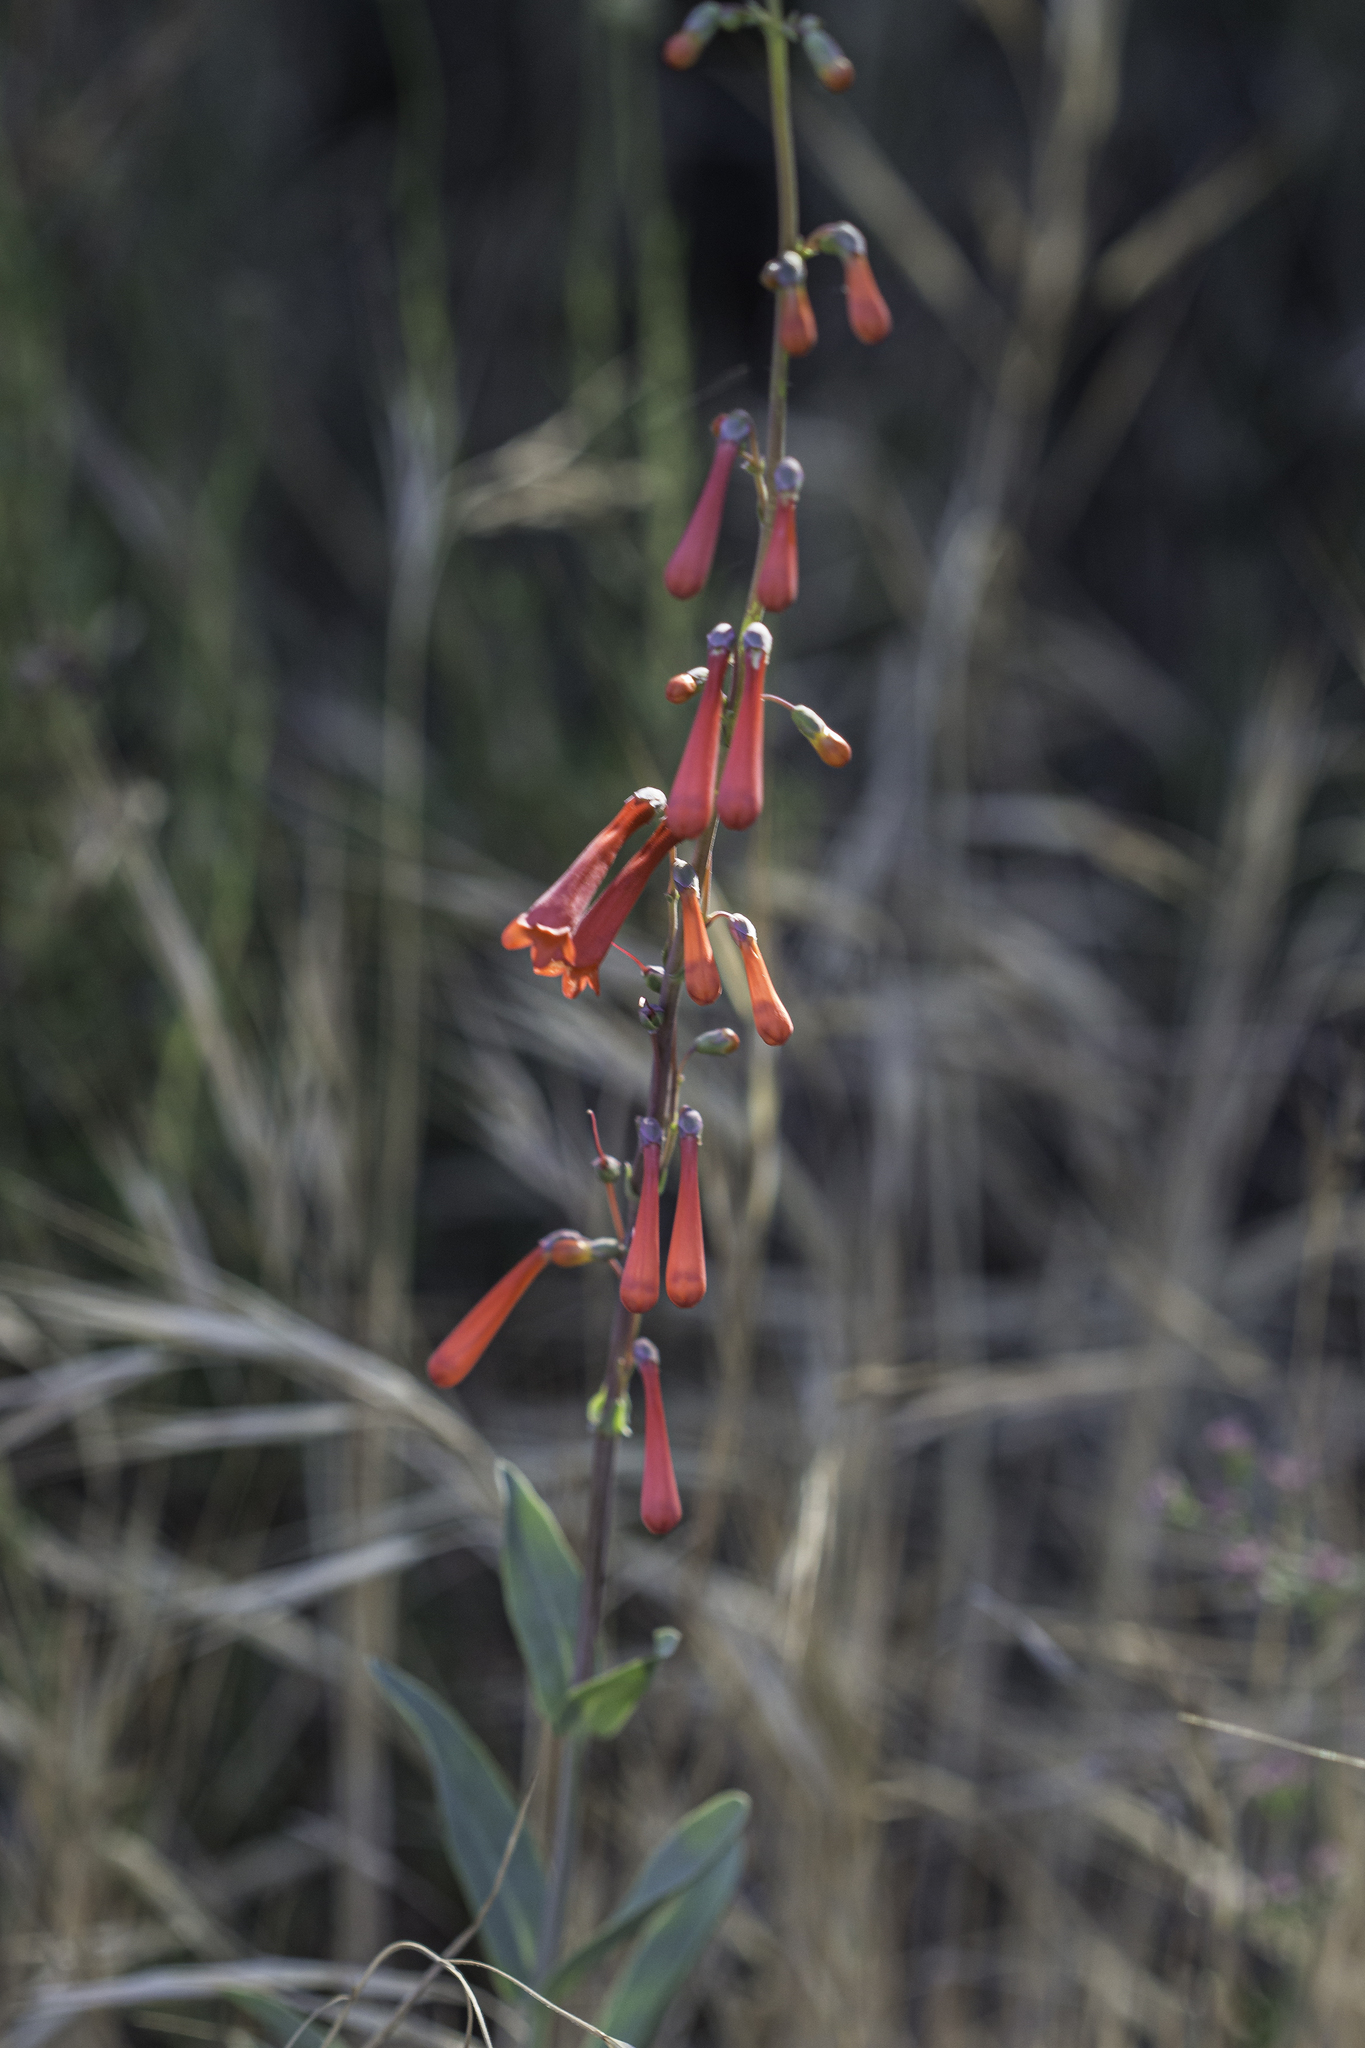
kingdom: Plantae
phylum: Tracheophyta
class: Magnoliopsida
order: Lamiales
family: Plantaginaceae
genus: Penstemon
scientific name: Penstemon centranthifolius
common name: Scarlet bugler
